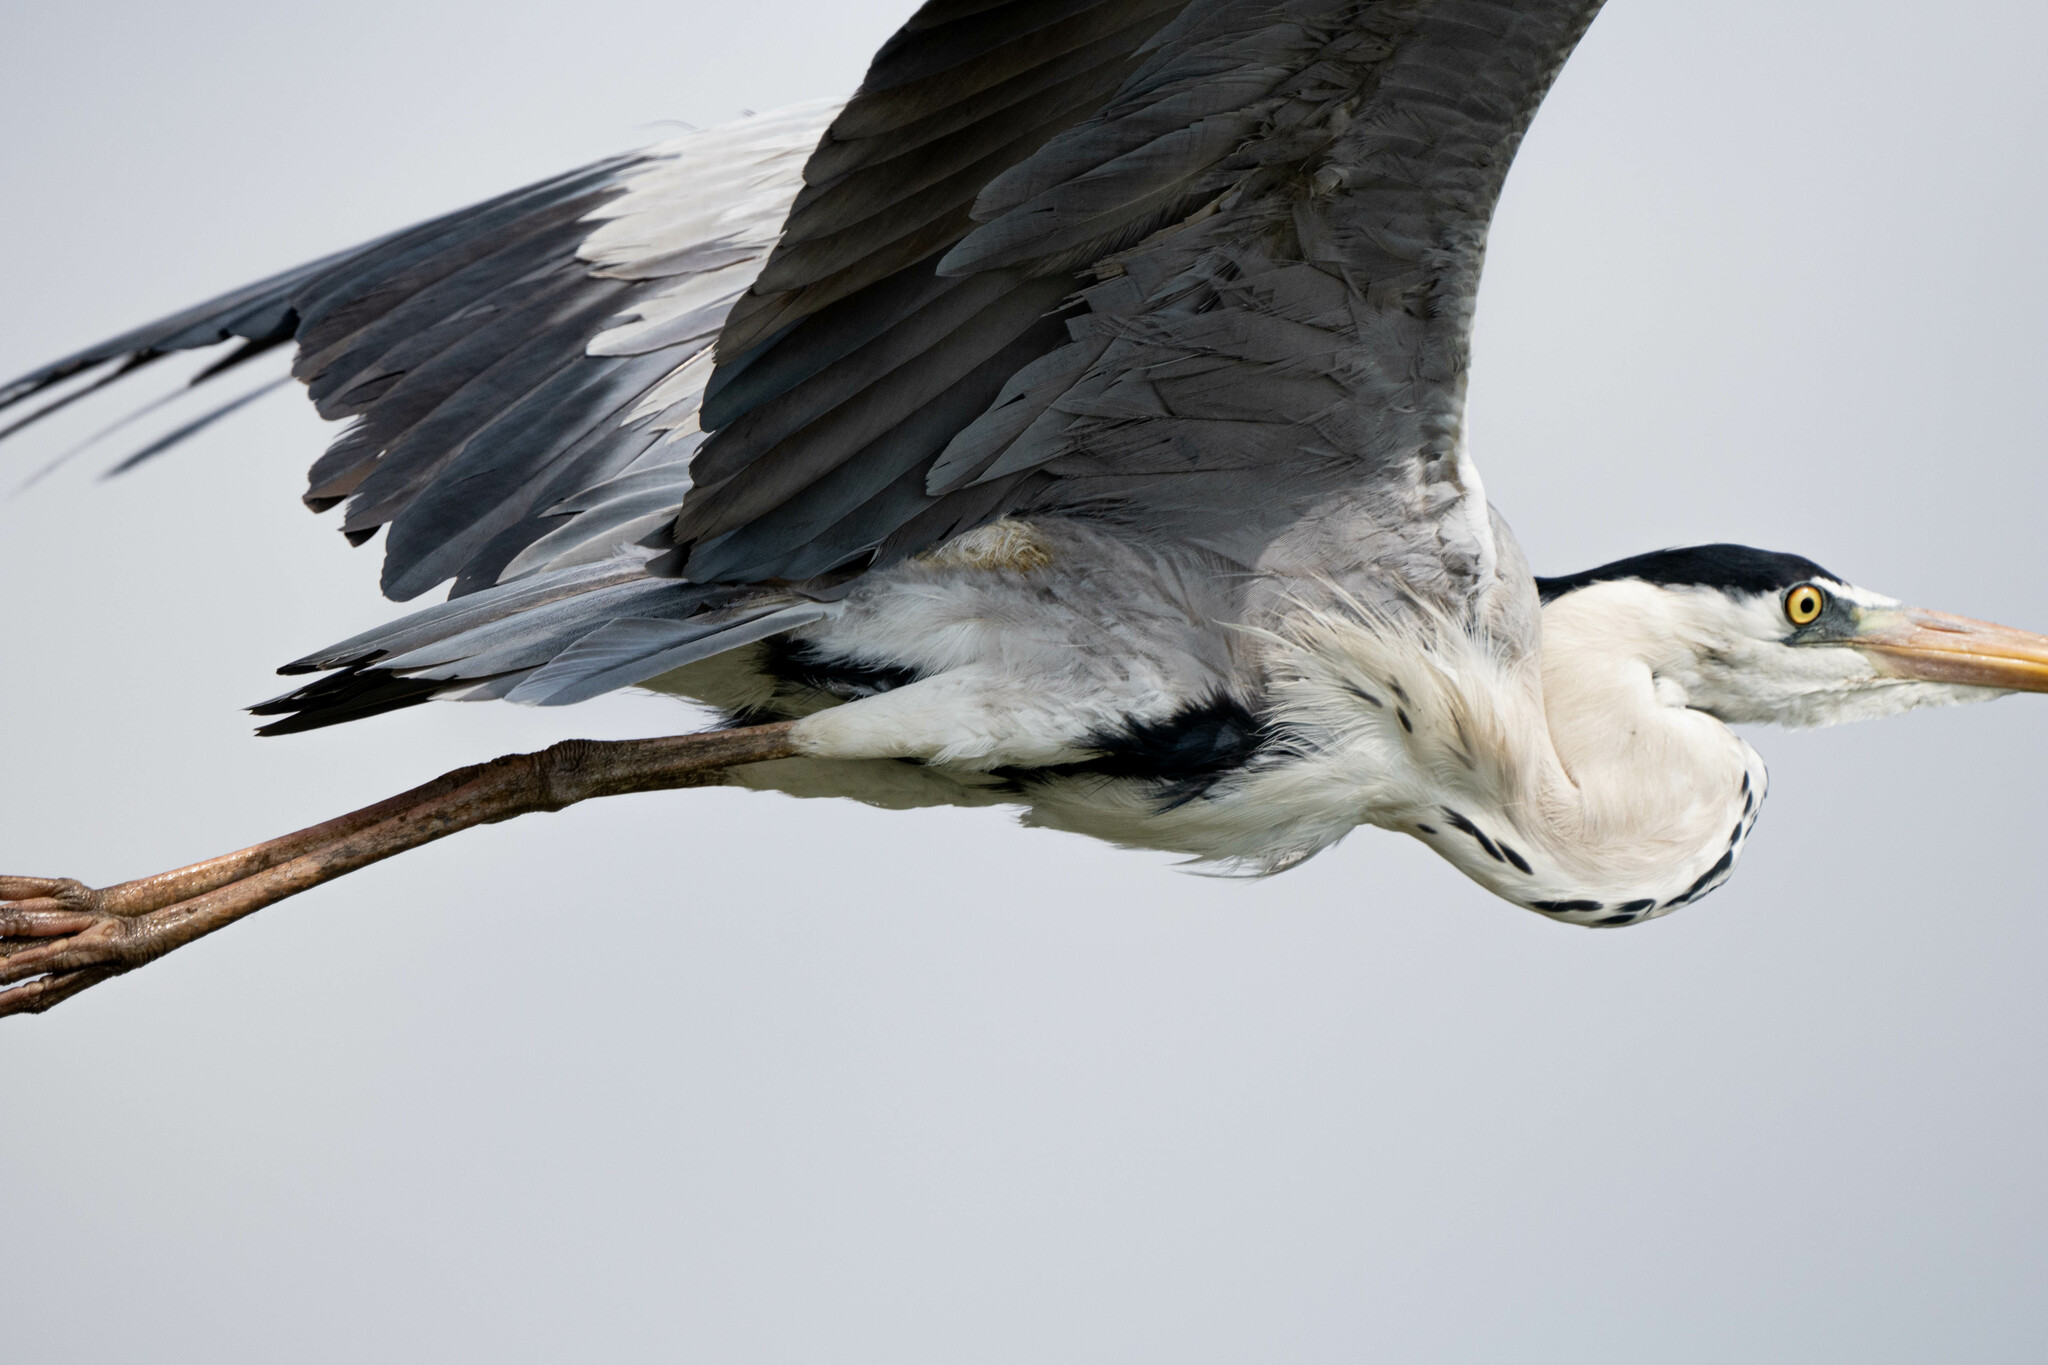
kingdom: Animalia
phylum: Chordata
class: Aves
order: Pelecaniformes
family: Ardeidae
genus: Ardea
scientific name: Ardea cinerea
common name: Grey heron
